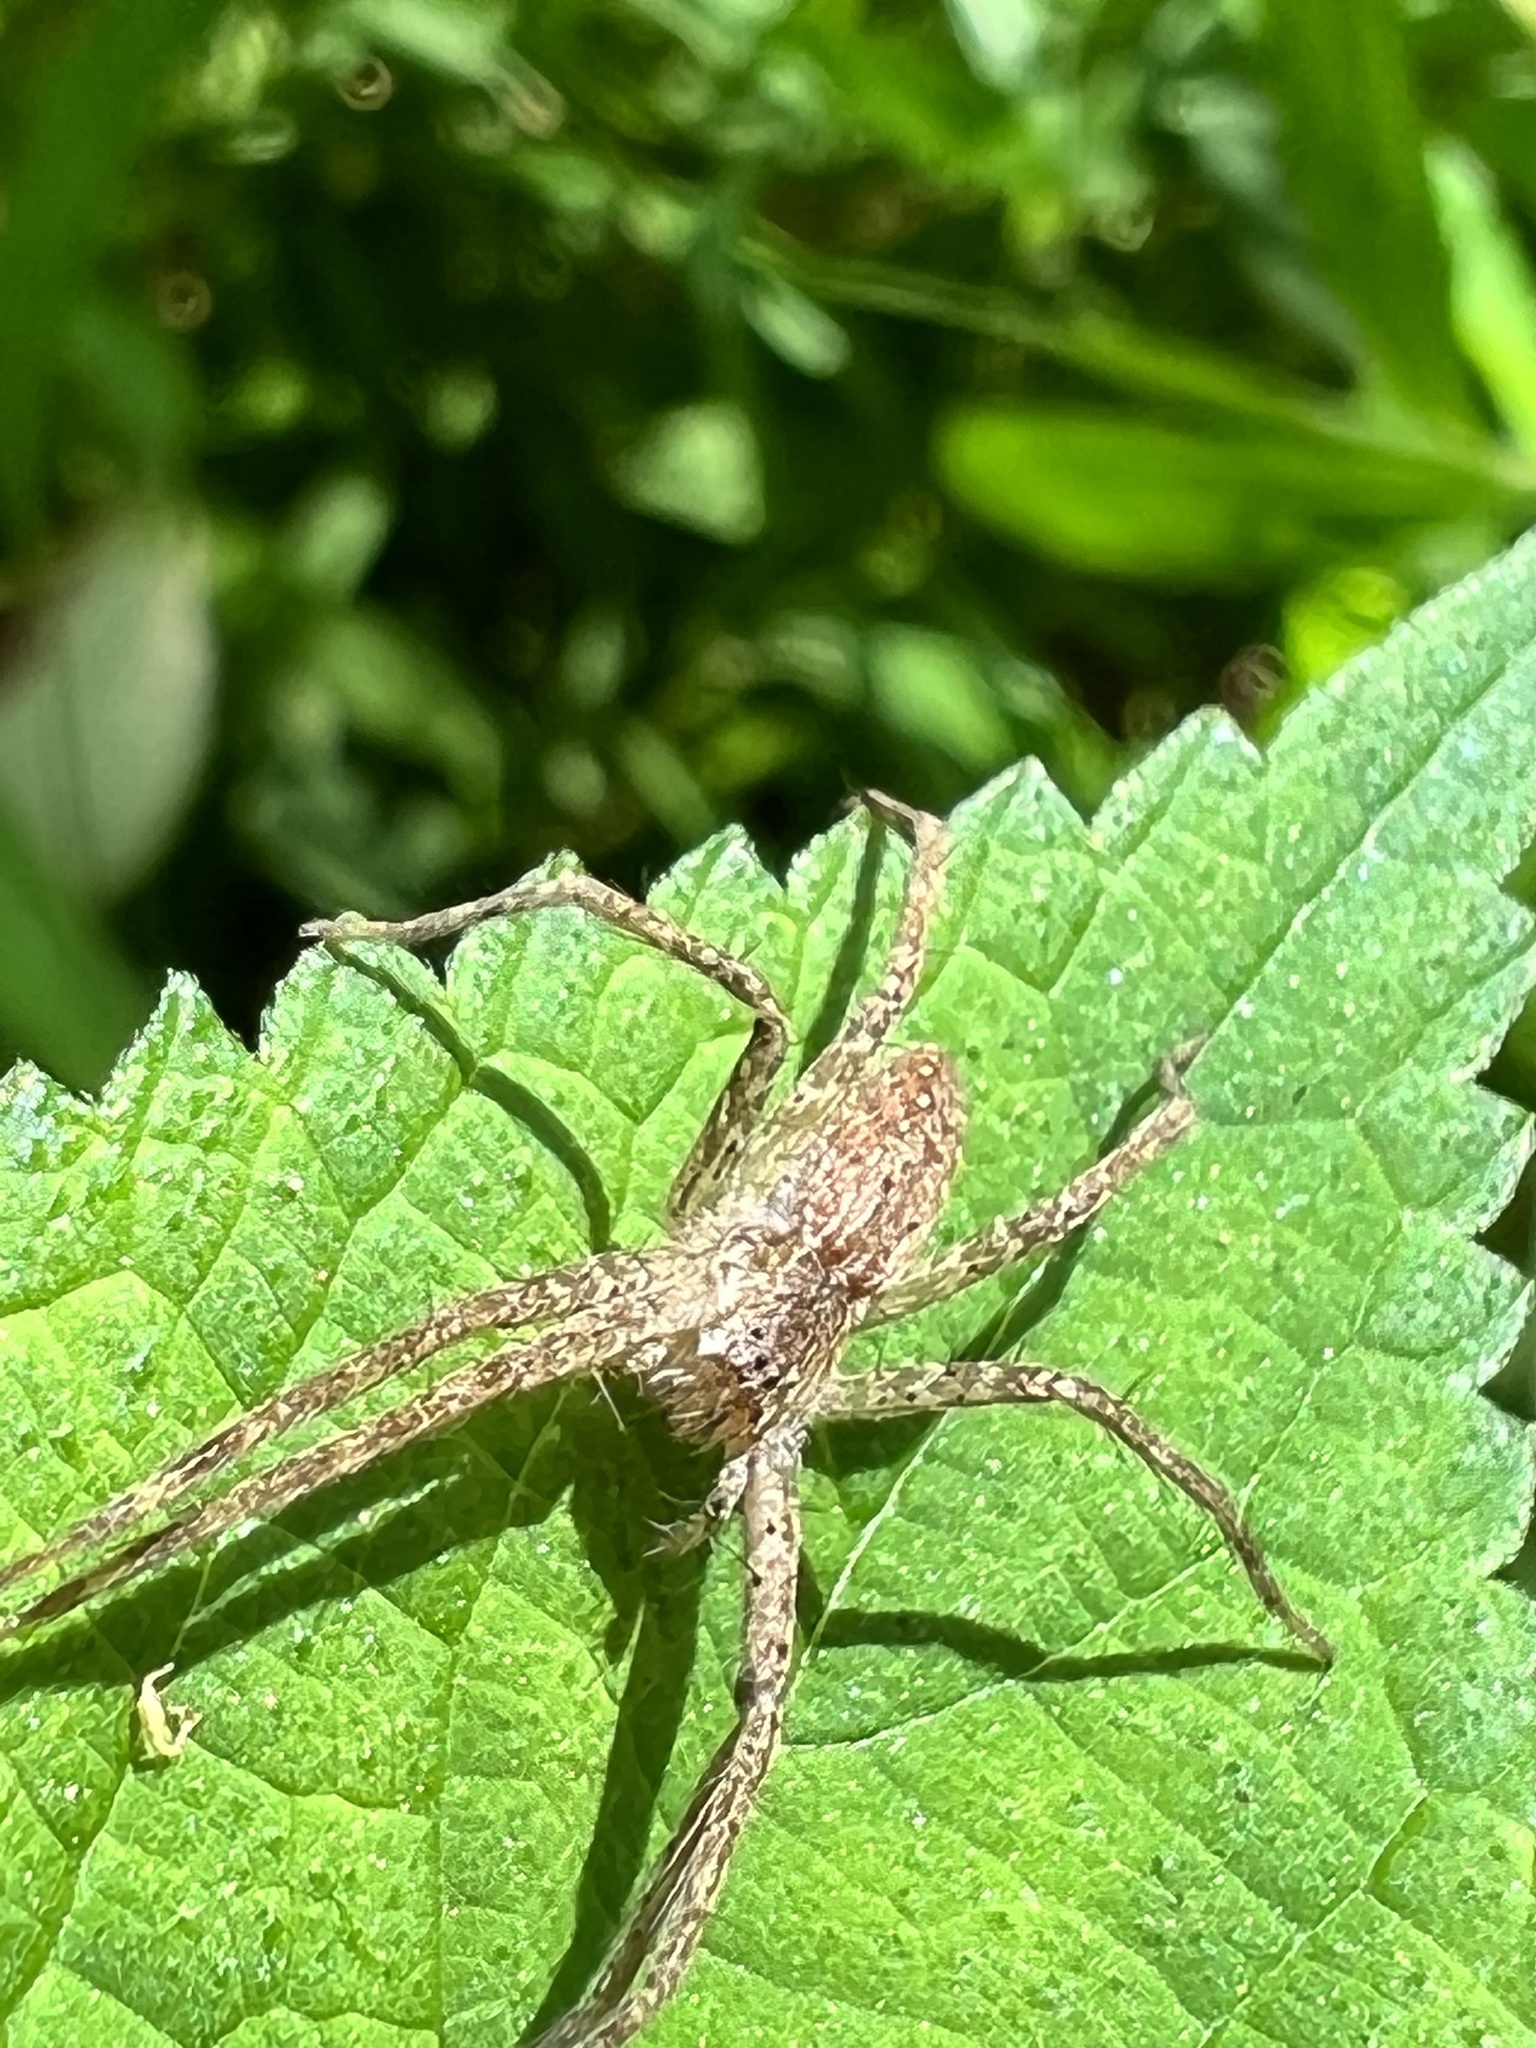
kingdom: Animalia
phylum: Arthropoda
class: Arachnida
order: Araneae
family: Pisauridae
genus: Pisaurina
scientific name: Pisaurina mira
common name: American nursery web spider
